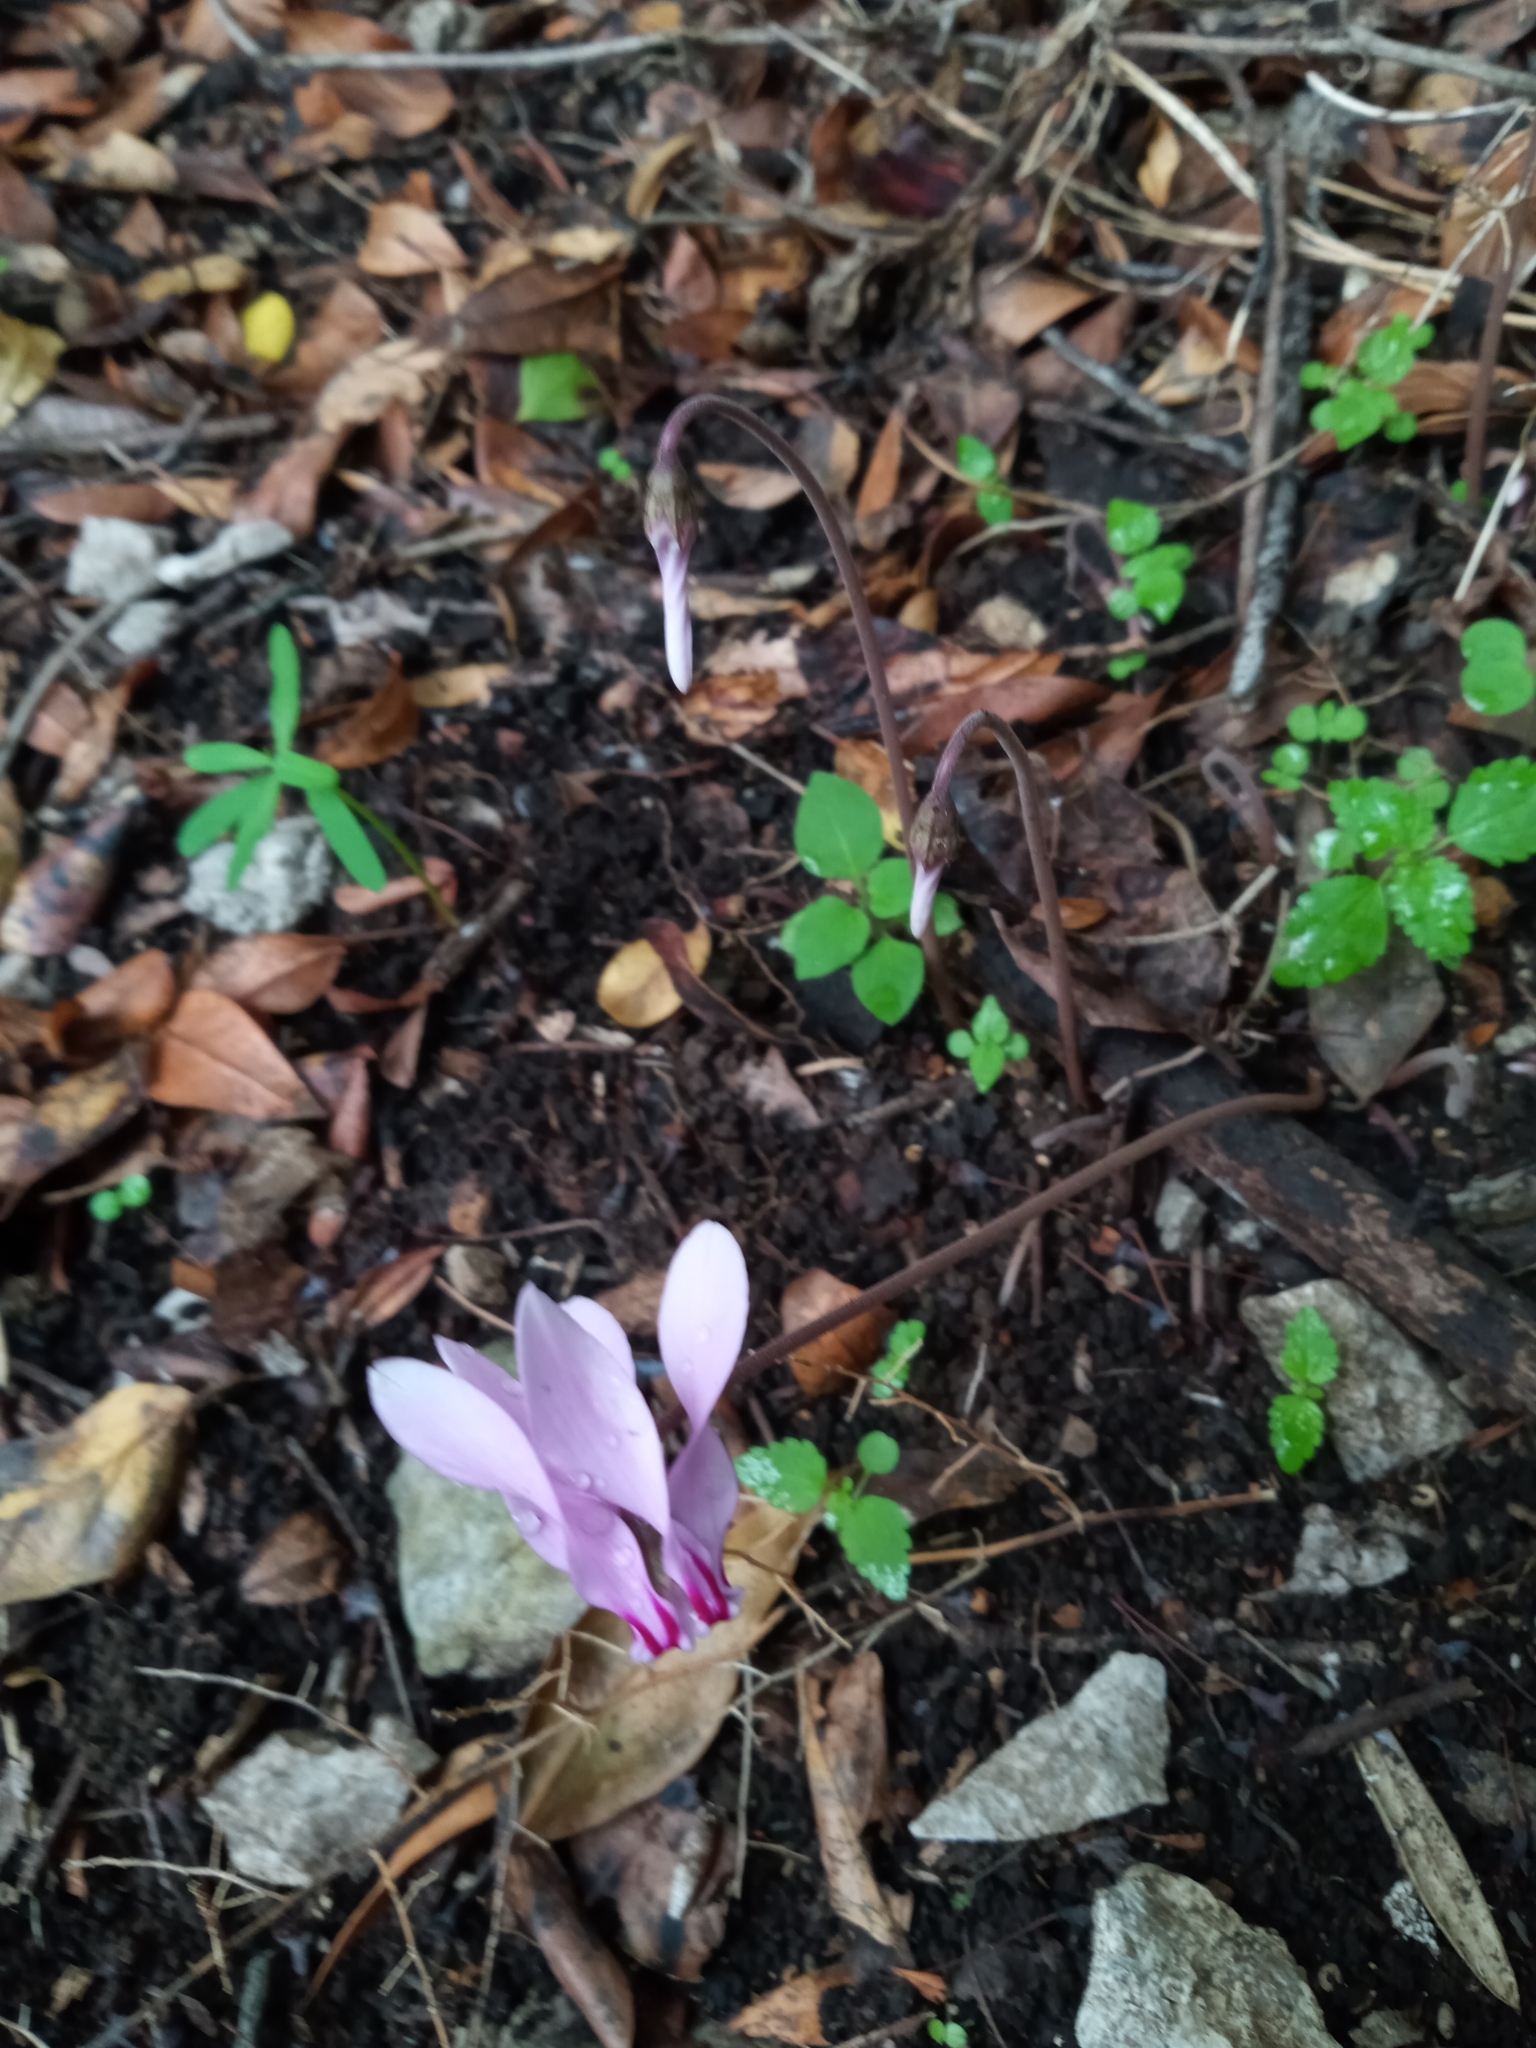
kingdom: Plantae
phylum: Tracheophyta
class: Magnoliopsida
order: Ericales
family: Primulaceae
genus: Cyclamen
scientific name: Cyclamen hederifolium
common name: Sowbread
